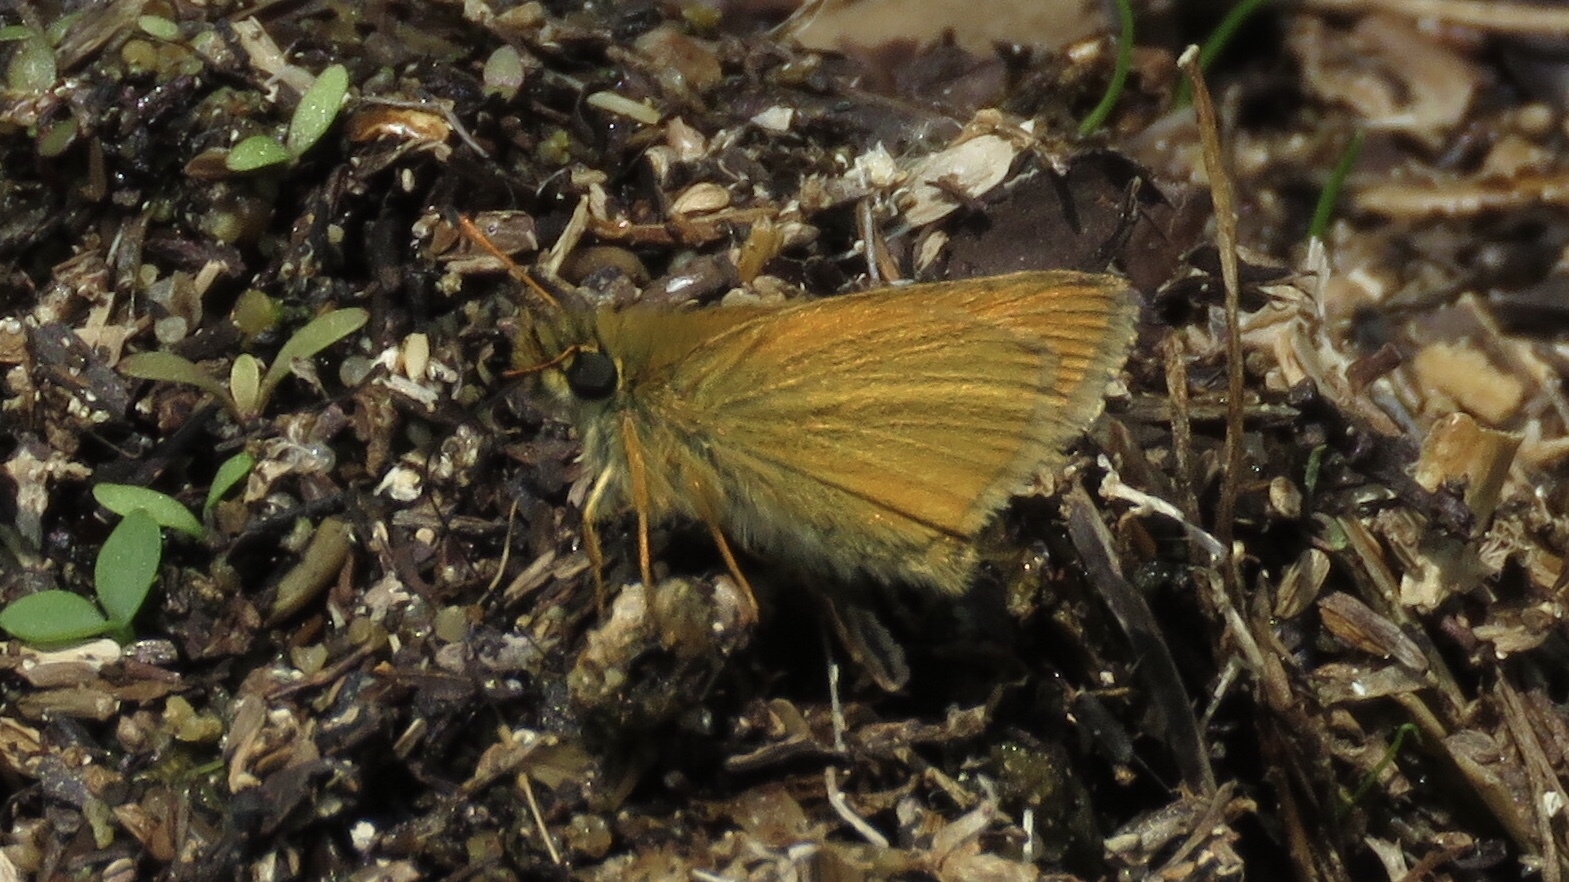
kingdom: Animalia
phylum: Arthropoda
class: Insecta
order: Lepidoptera
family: Hesperiidae
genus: Thymelicus
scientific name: Thymelicus lineola
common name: Essex skipper
